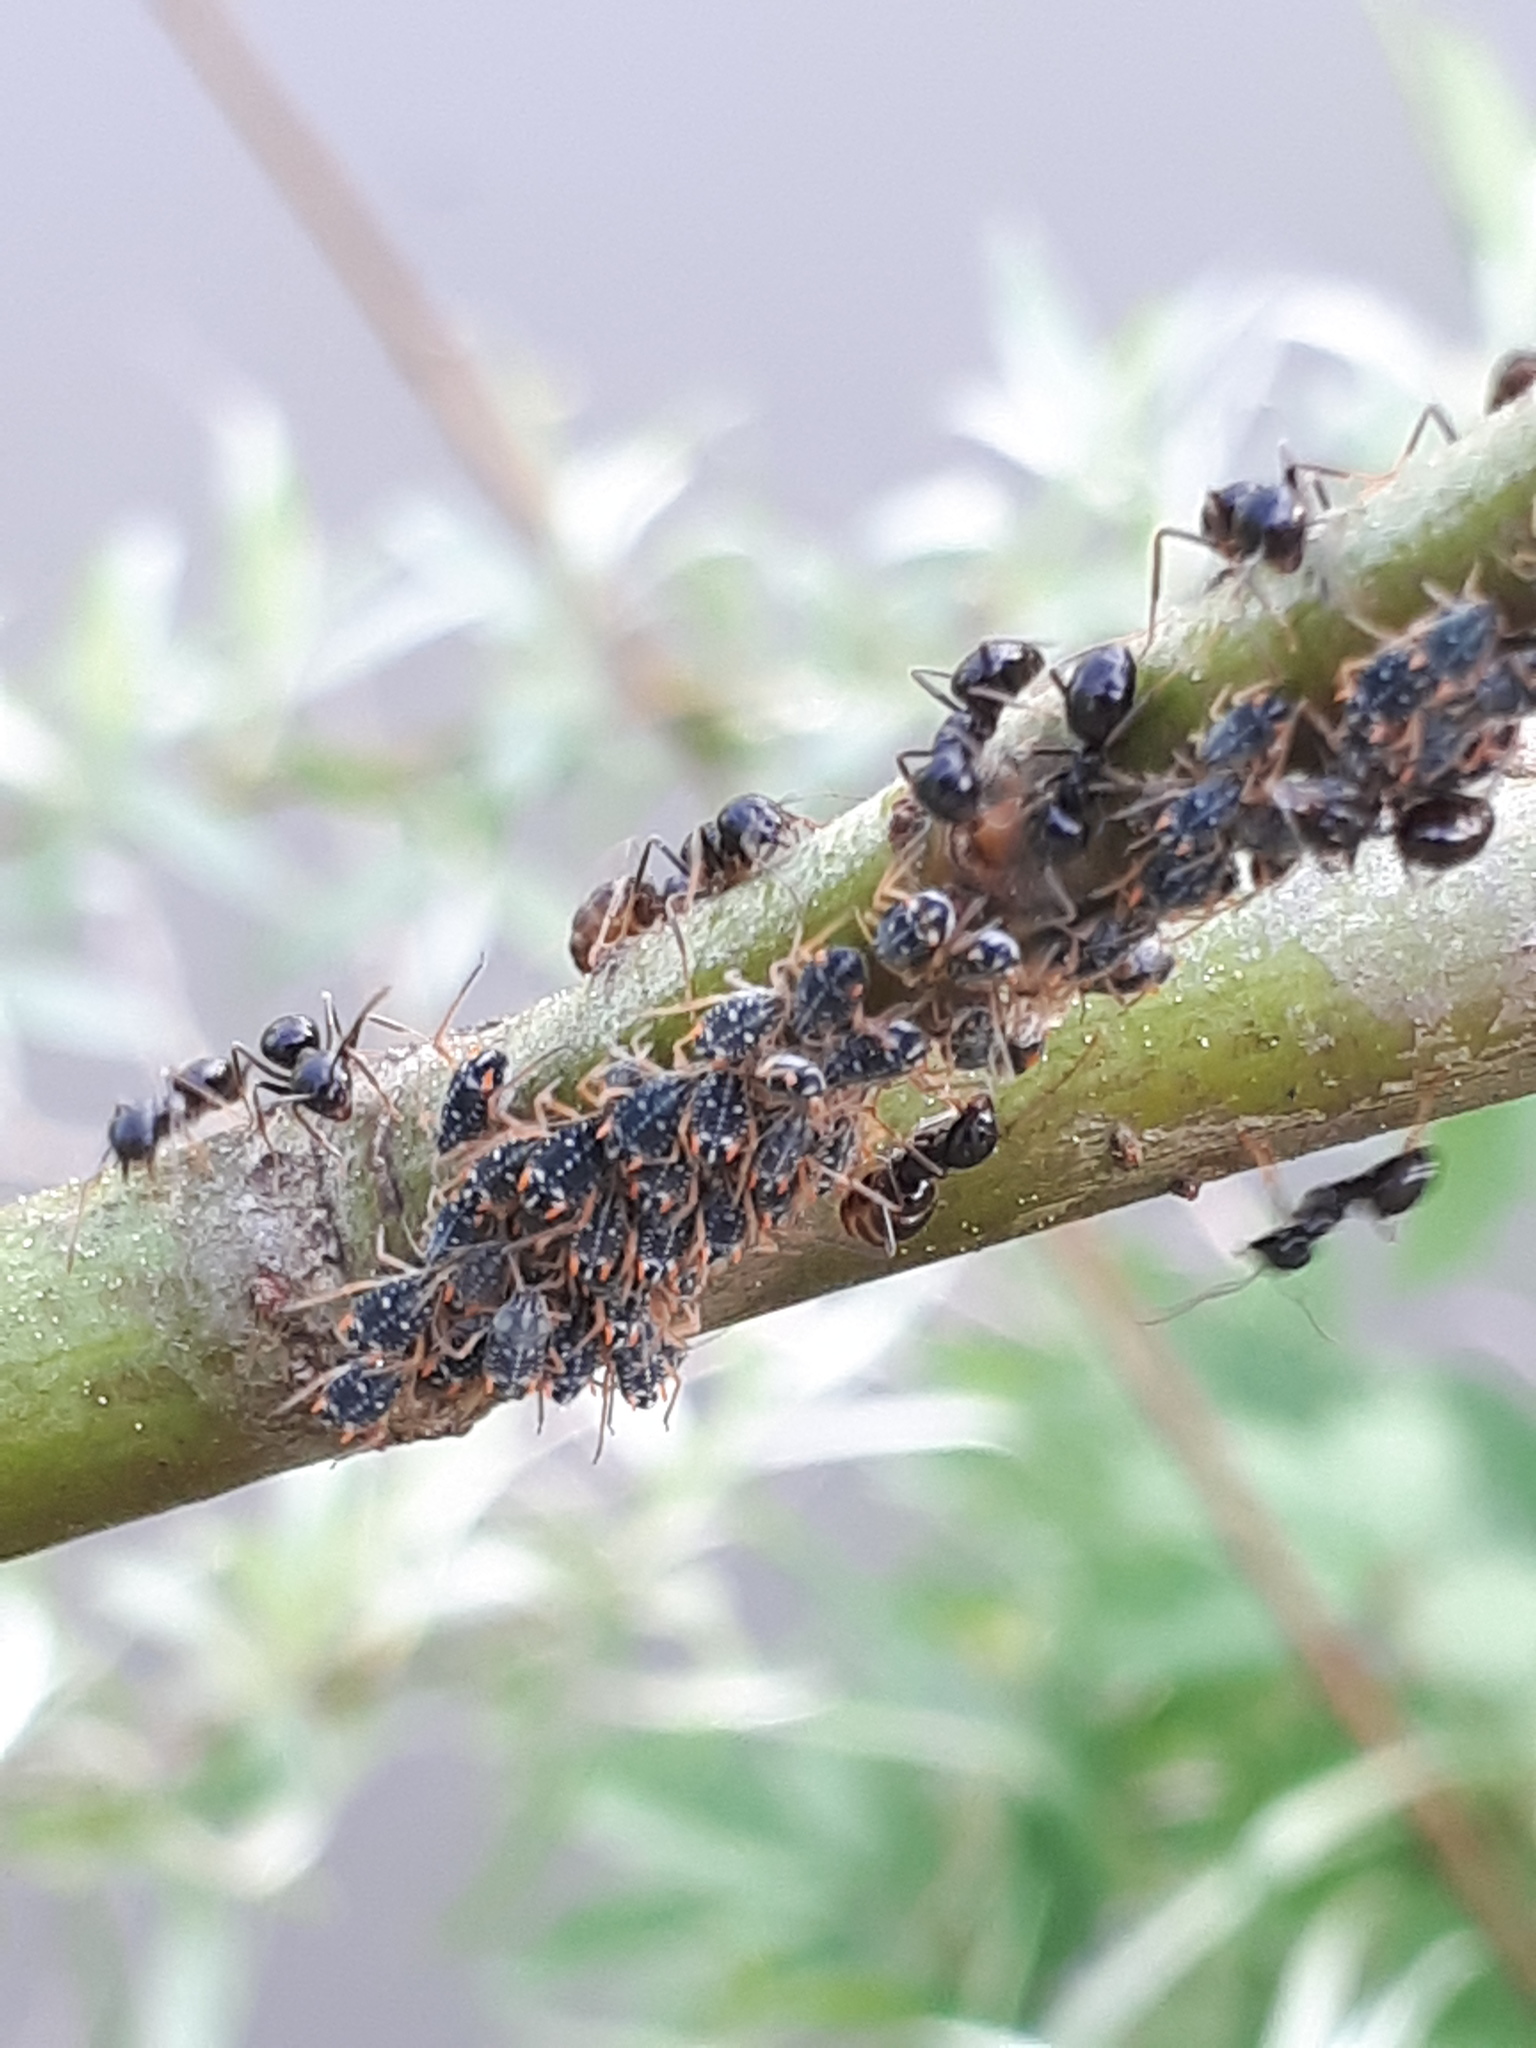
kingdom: Animalia
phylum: Arthropoda
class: Insecta
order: Hemiptera
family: Aphididae
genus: Pterocomma
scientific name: Pterocomma salicis
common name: Aphid
